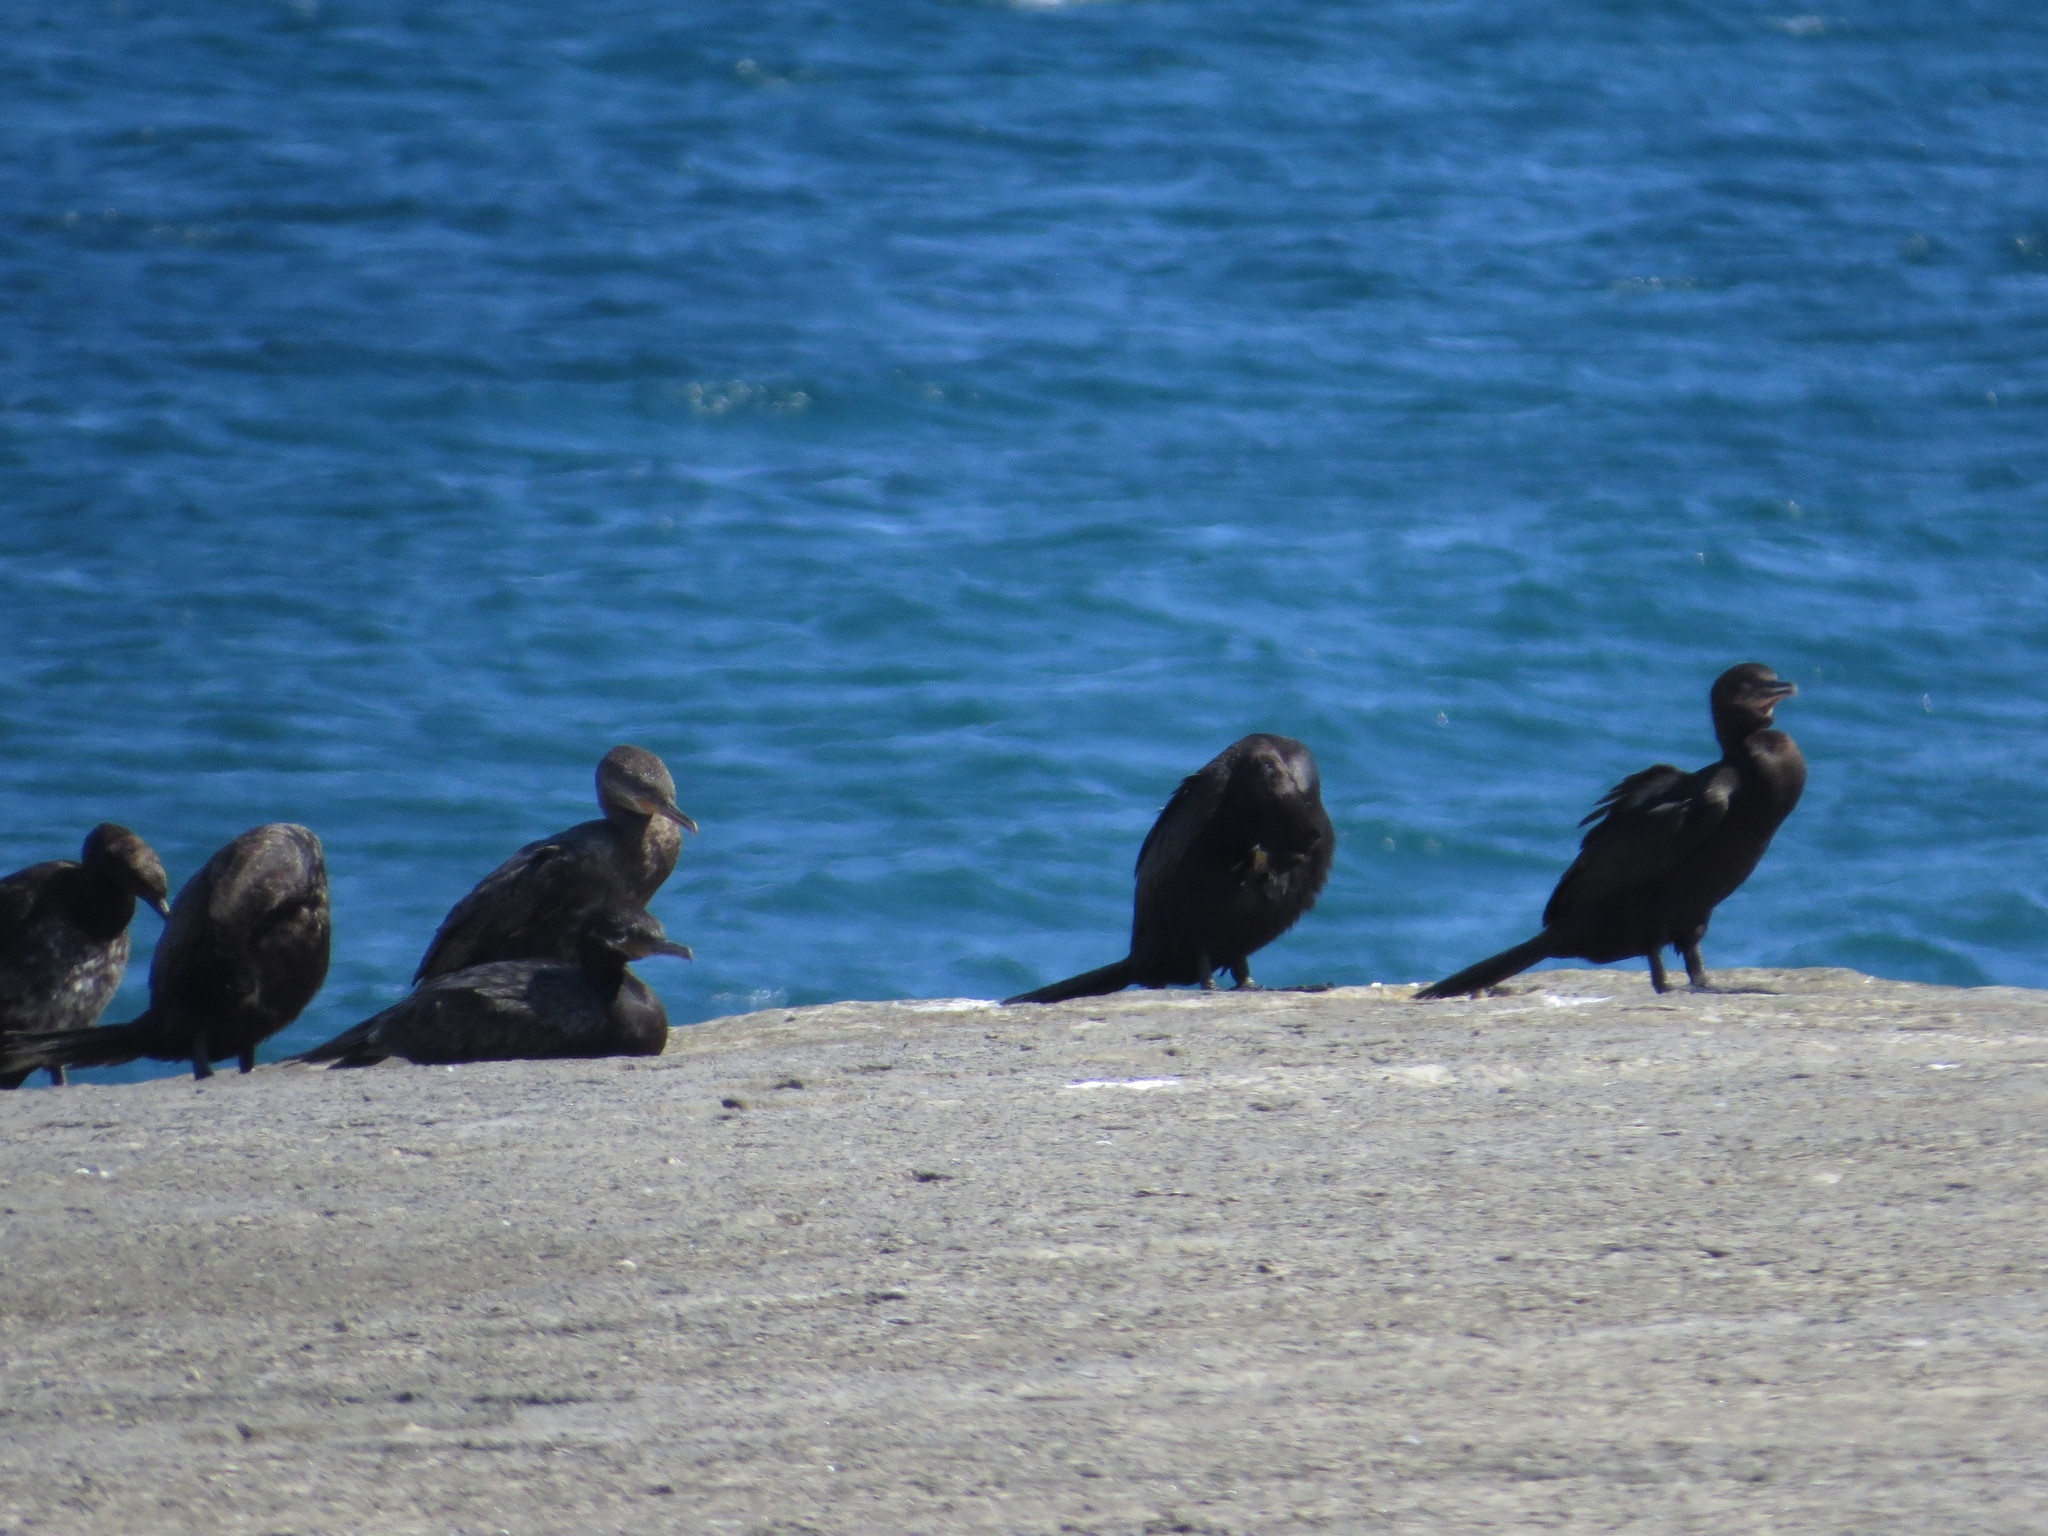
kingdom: Animalia
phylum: Chordata
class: Aves
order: Suliformes
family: Phalacrocoracidae
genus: Phalacrocorax
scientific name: Phalacrocorax brasilianus
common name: Neotropic cormorant
